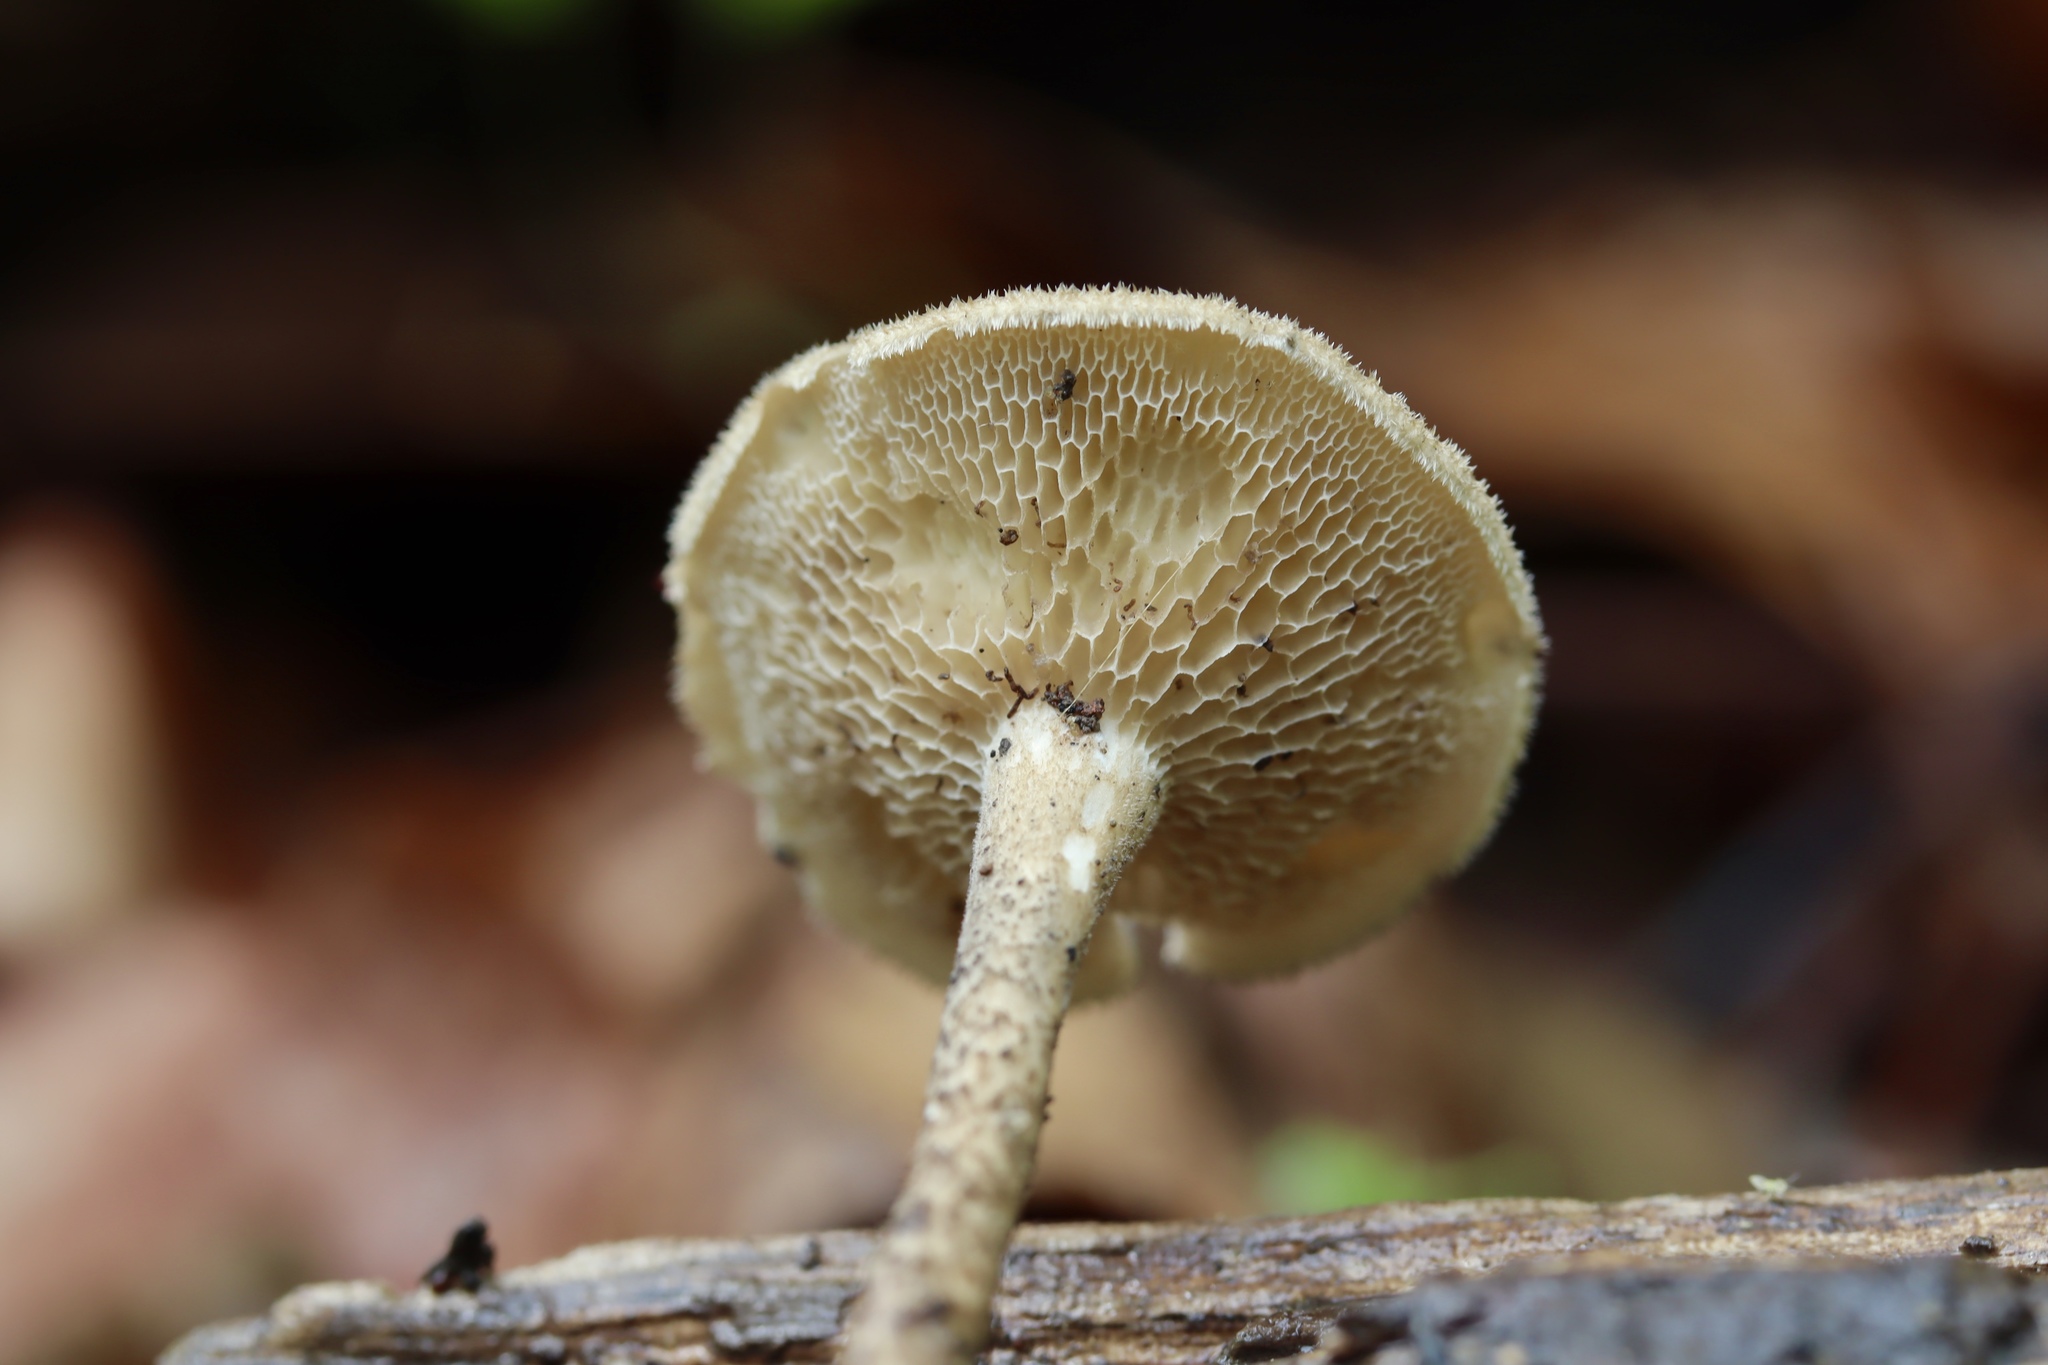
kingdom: Fungi
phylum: Basidiomycota
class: Agaricomycetes
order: Polyporales
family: Polyporaceae
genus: Lentinus
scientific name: Lentinus arcularius
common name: Spring polypore
